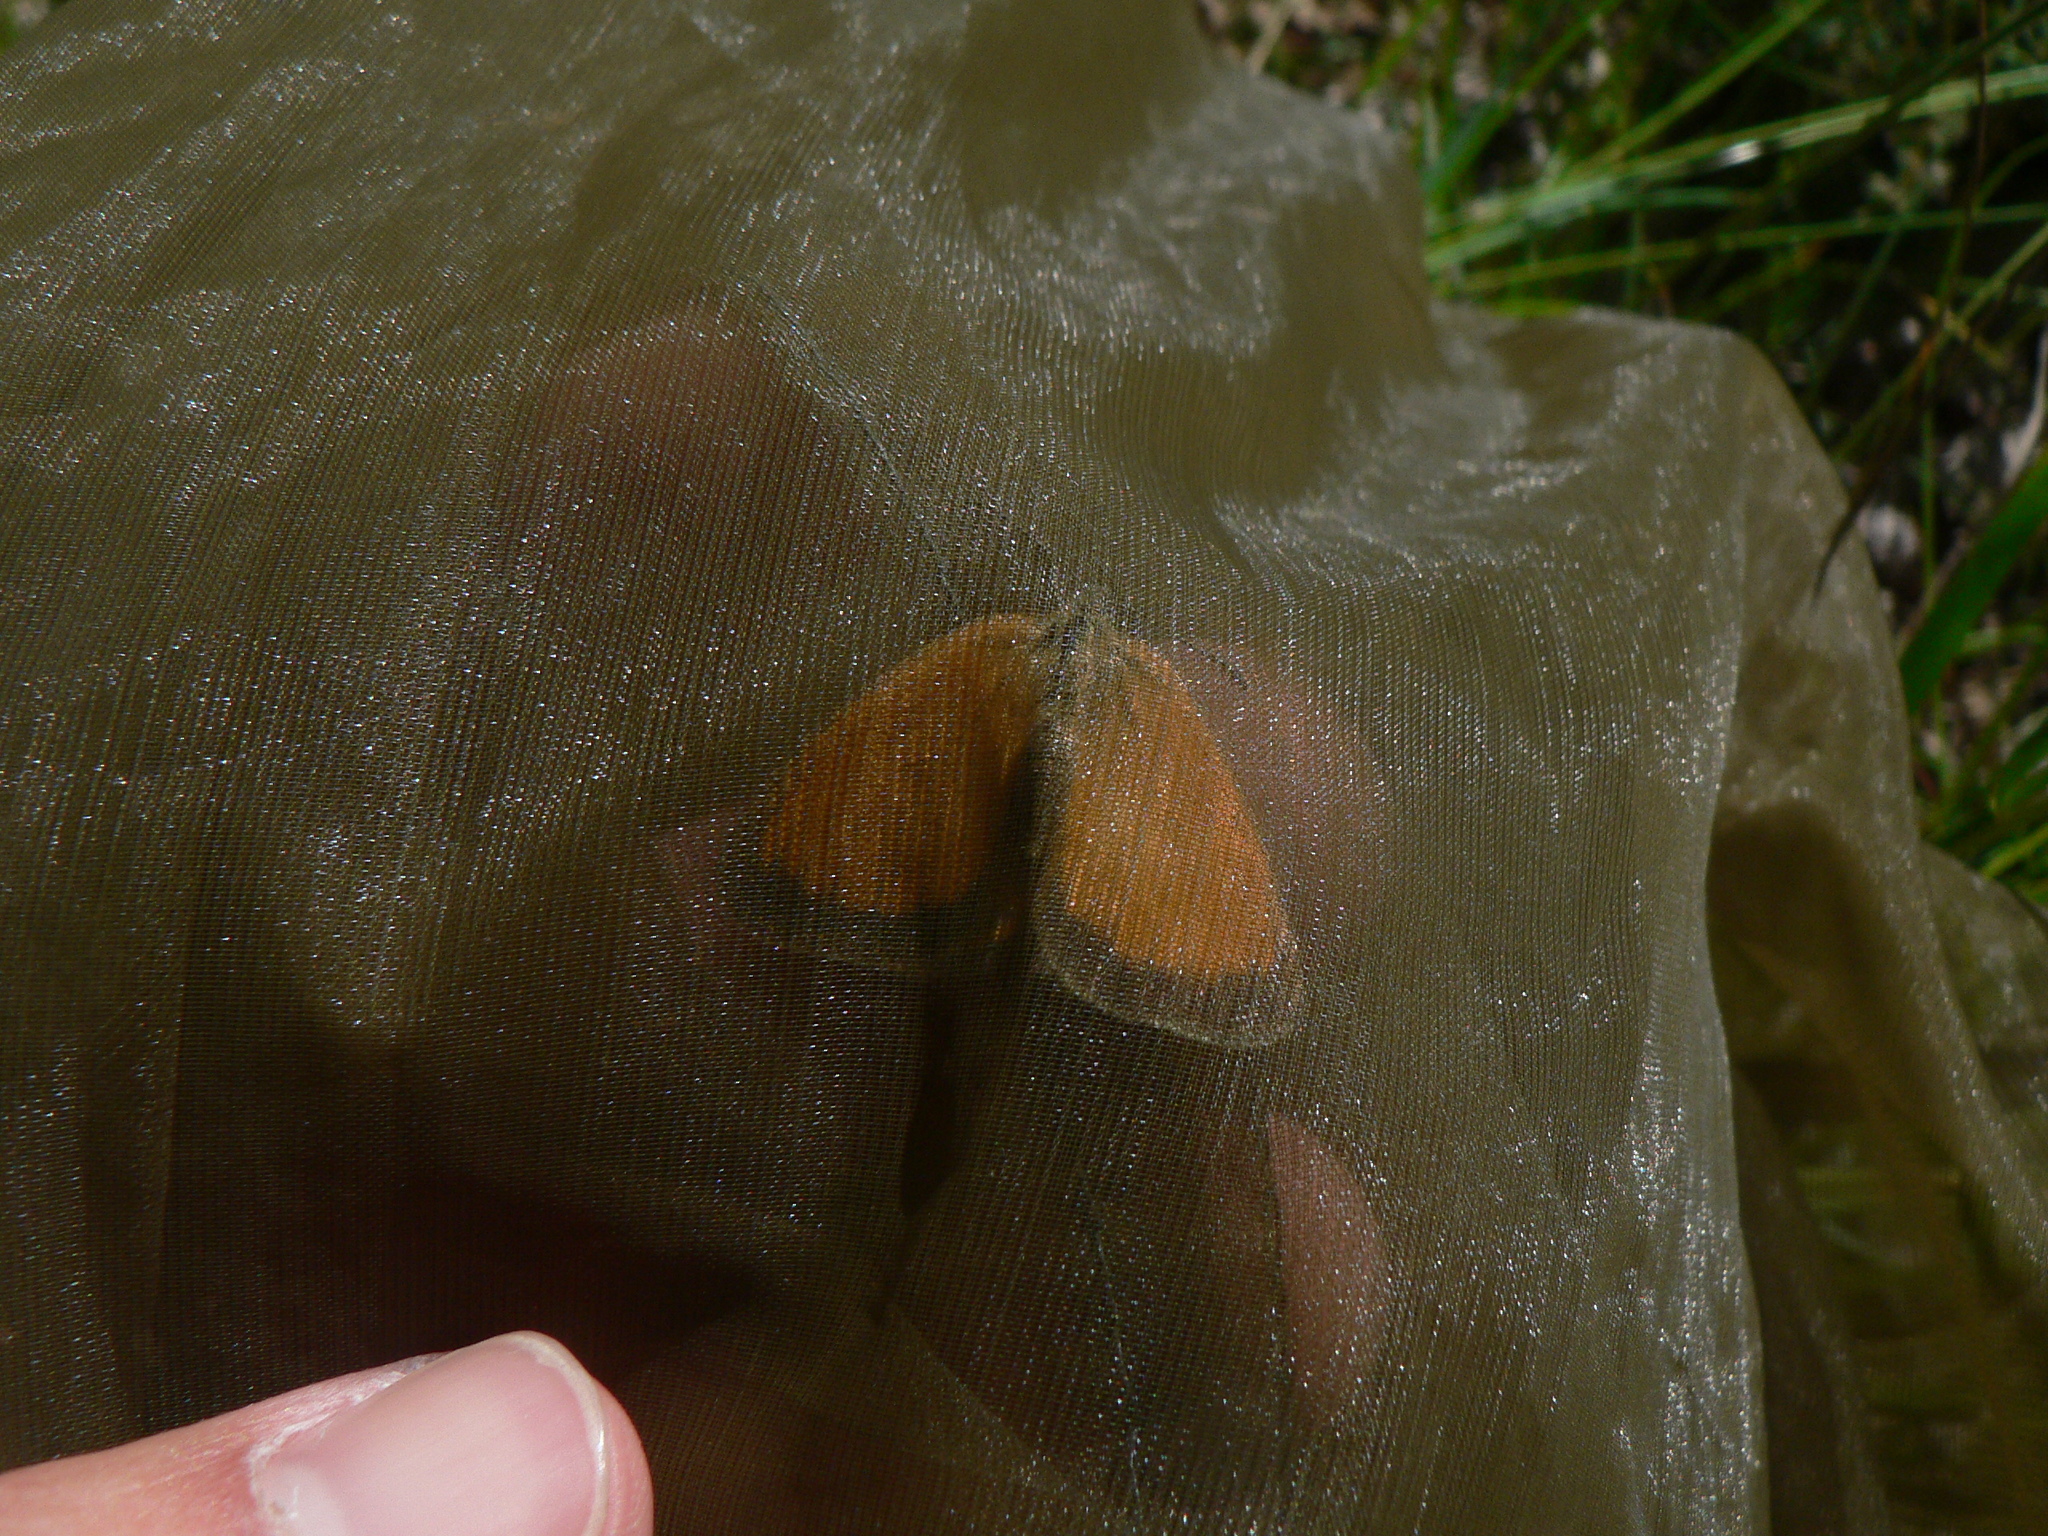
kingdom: Animalia
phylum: Arthropoda
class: Insecta
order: Lepidoptera
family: Nymphalidae
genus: Coenonympha
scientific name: Coenonympha arcania
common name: Pearly heath
